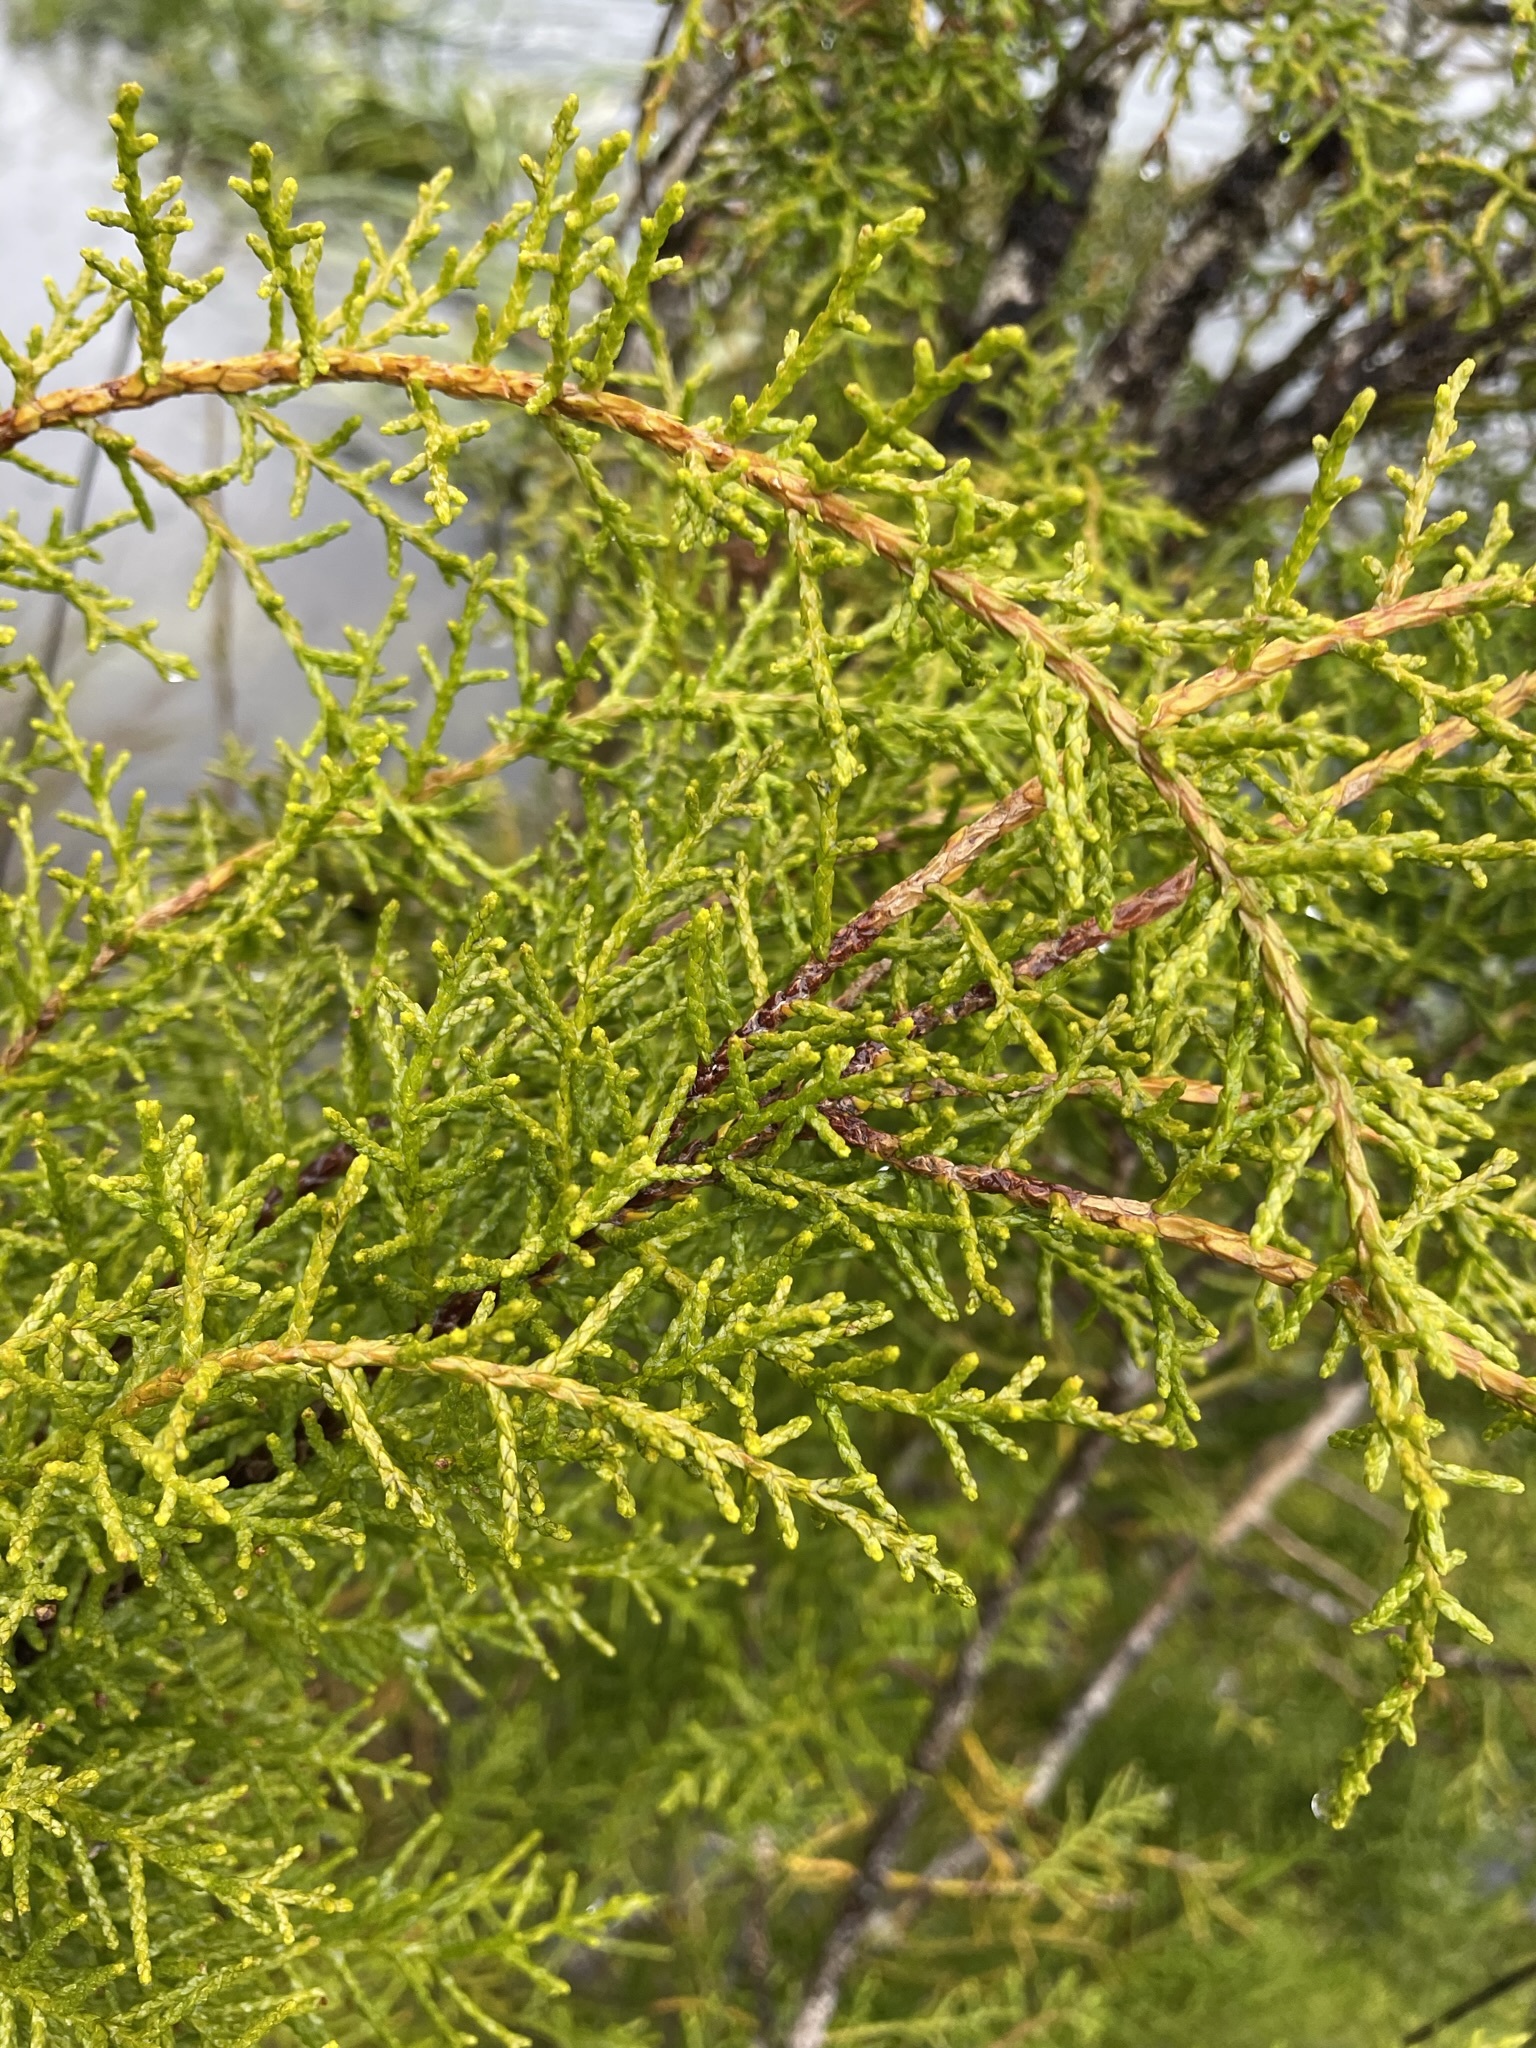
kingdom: Plantae
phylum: Tracheophyta
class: Pinopsida
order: Pinales
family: Podocarpaceae
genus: Lagarostrobos
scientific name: Lagarostrobos franklinii
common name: Huon pine
